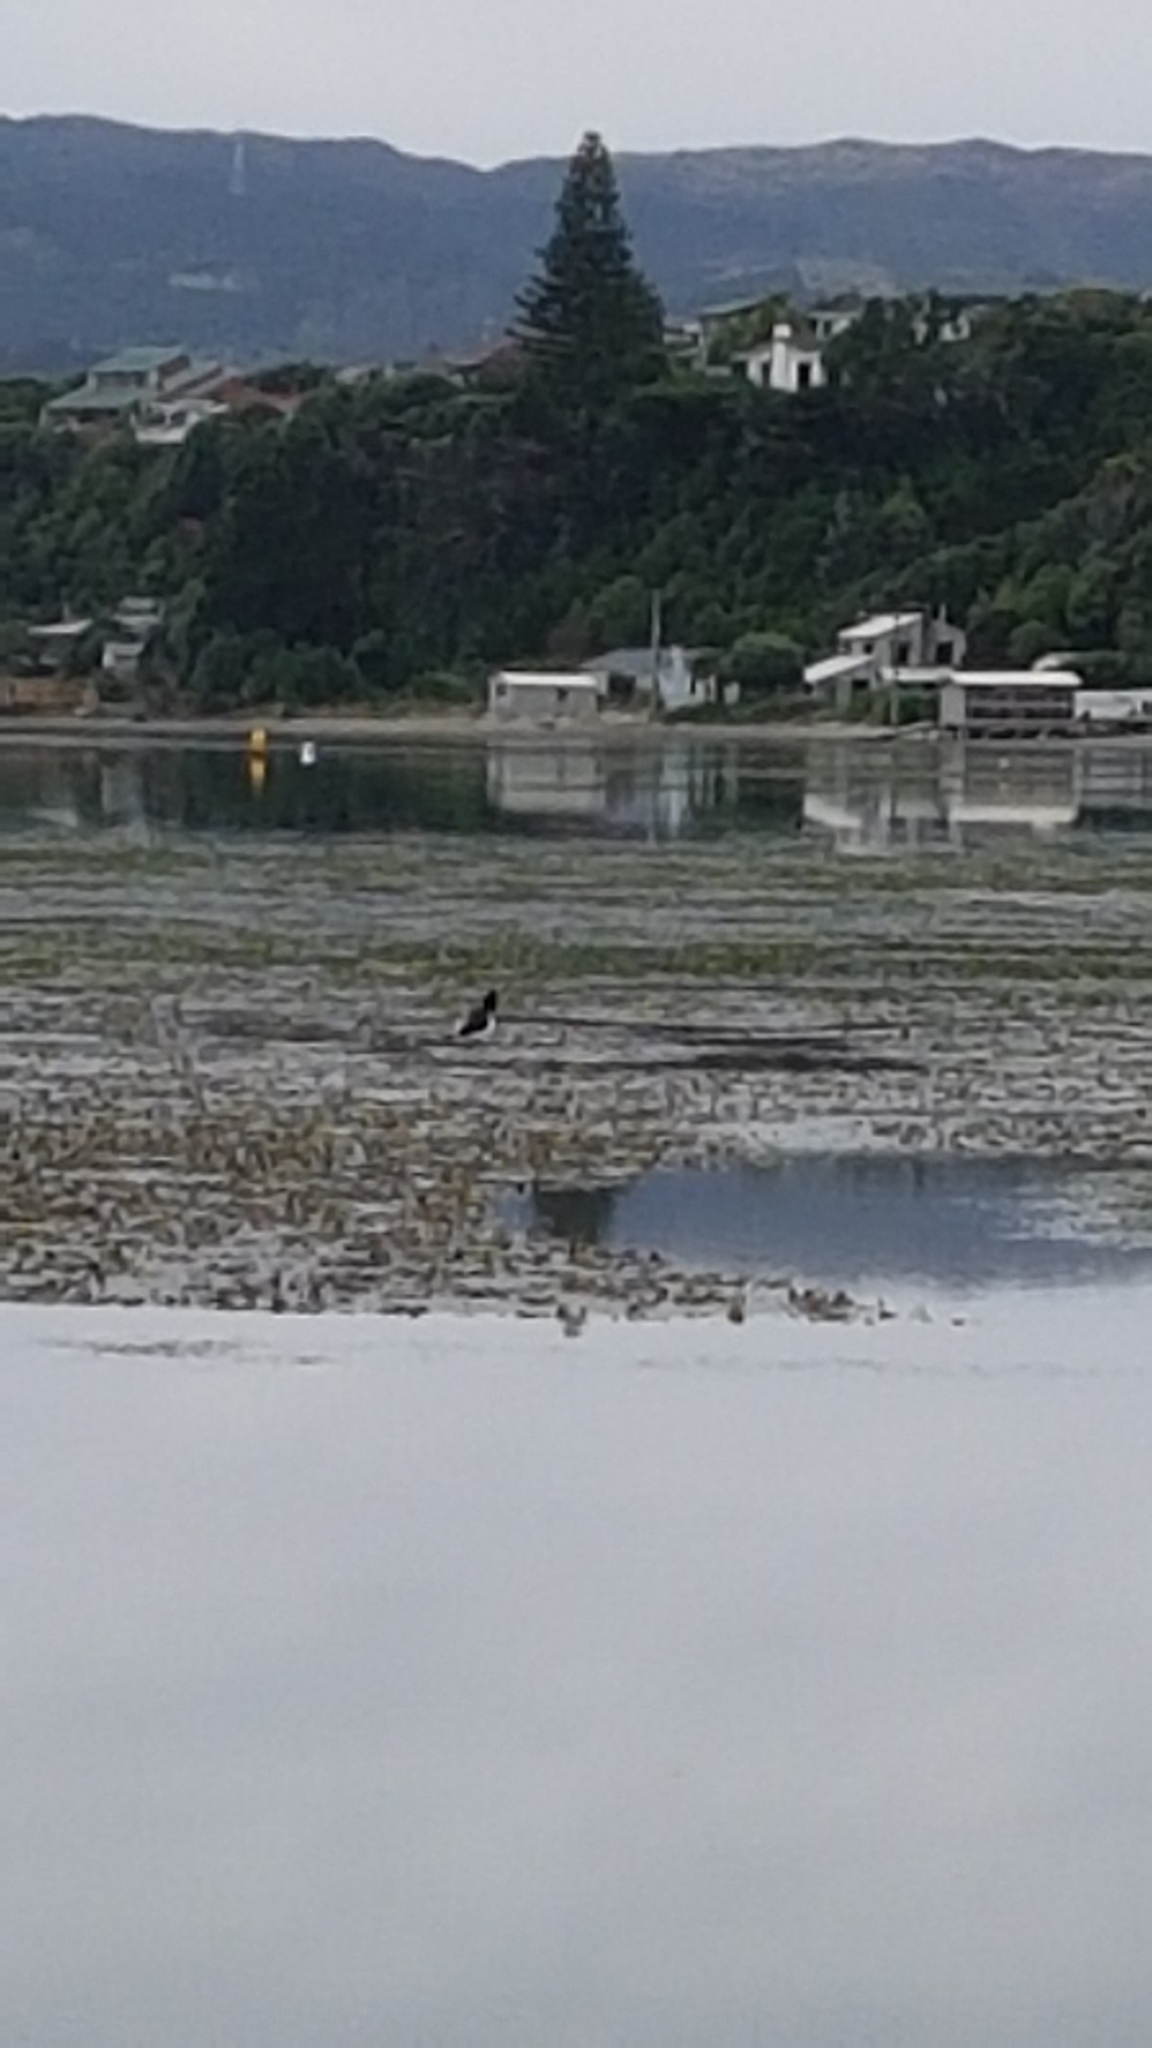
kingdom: Animalia
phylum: Chordata
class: Aves
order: Charadriiformes
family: Haematopodidae
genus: Haematopus
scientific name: Haematopus finschi
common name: South island oystercatcher
